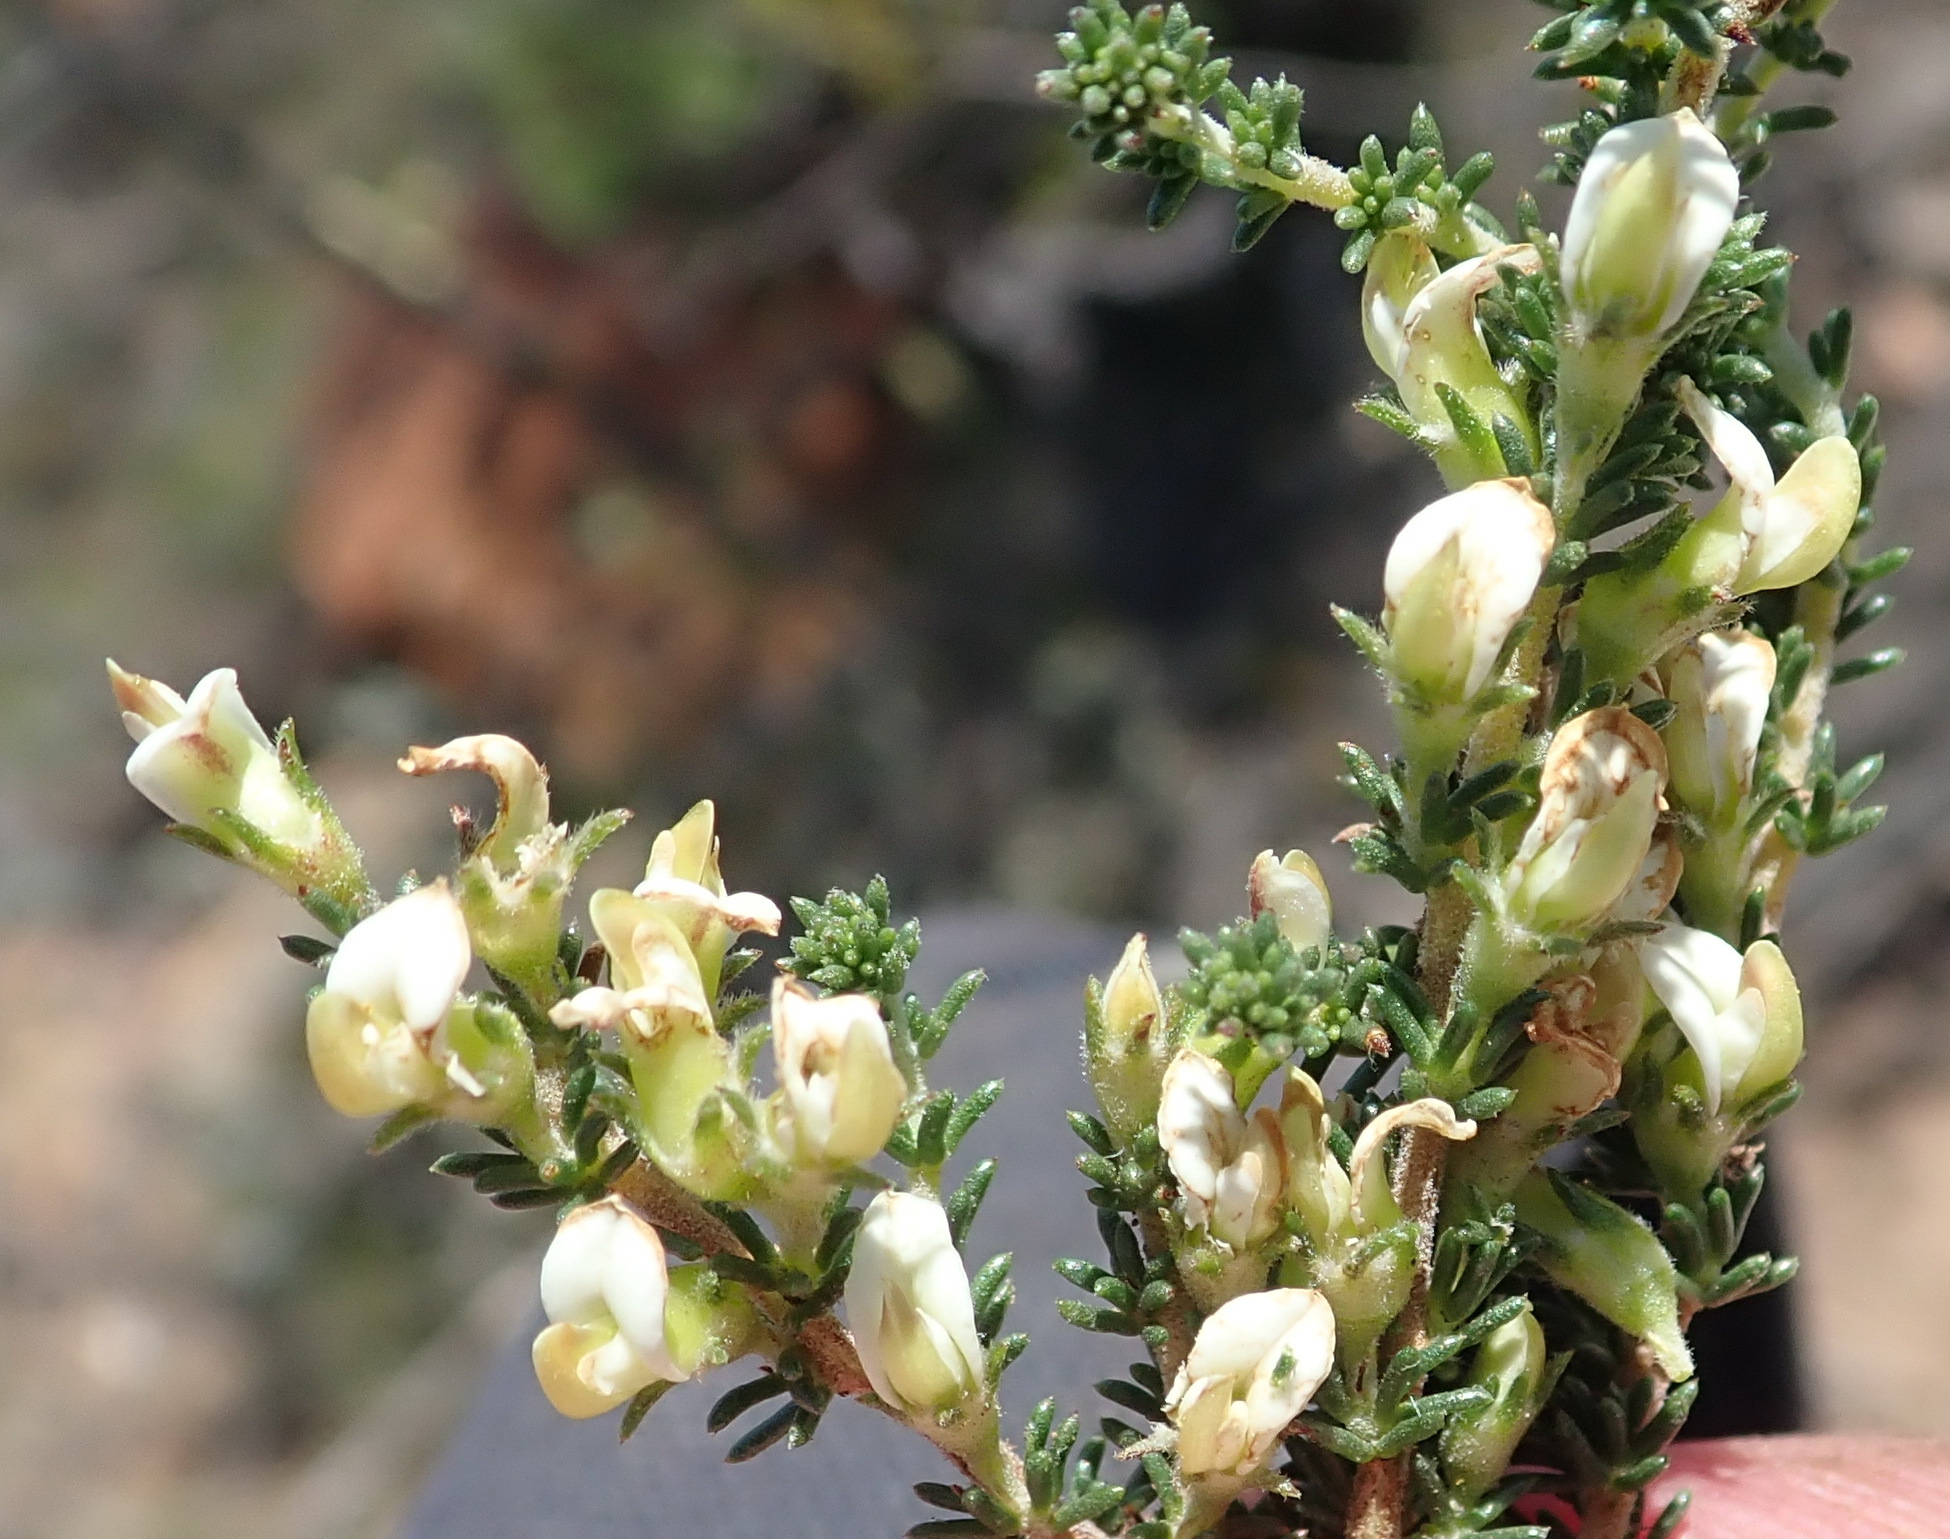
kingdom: Plantae
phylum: Tracheophyta
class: Magnoliopsida
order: Fabales
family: Fabaceae
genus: Aspalathus
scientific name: Aspalathus hispida
